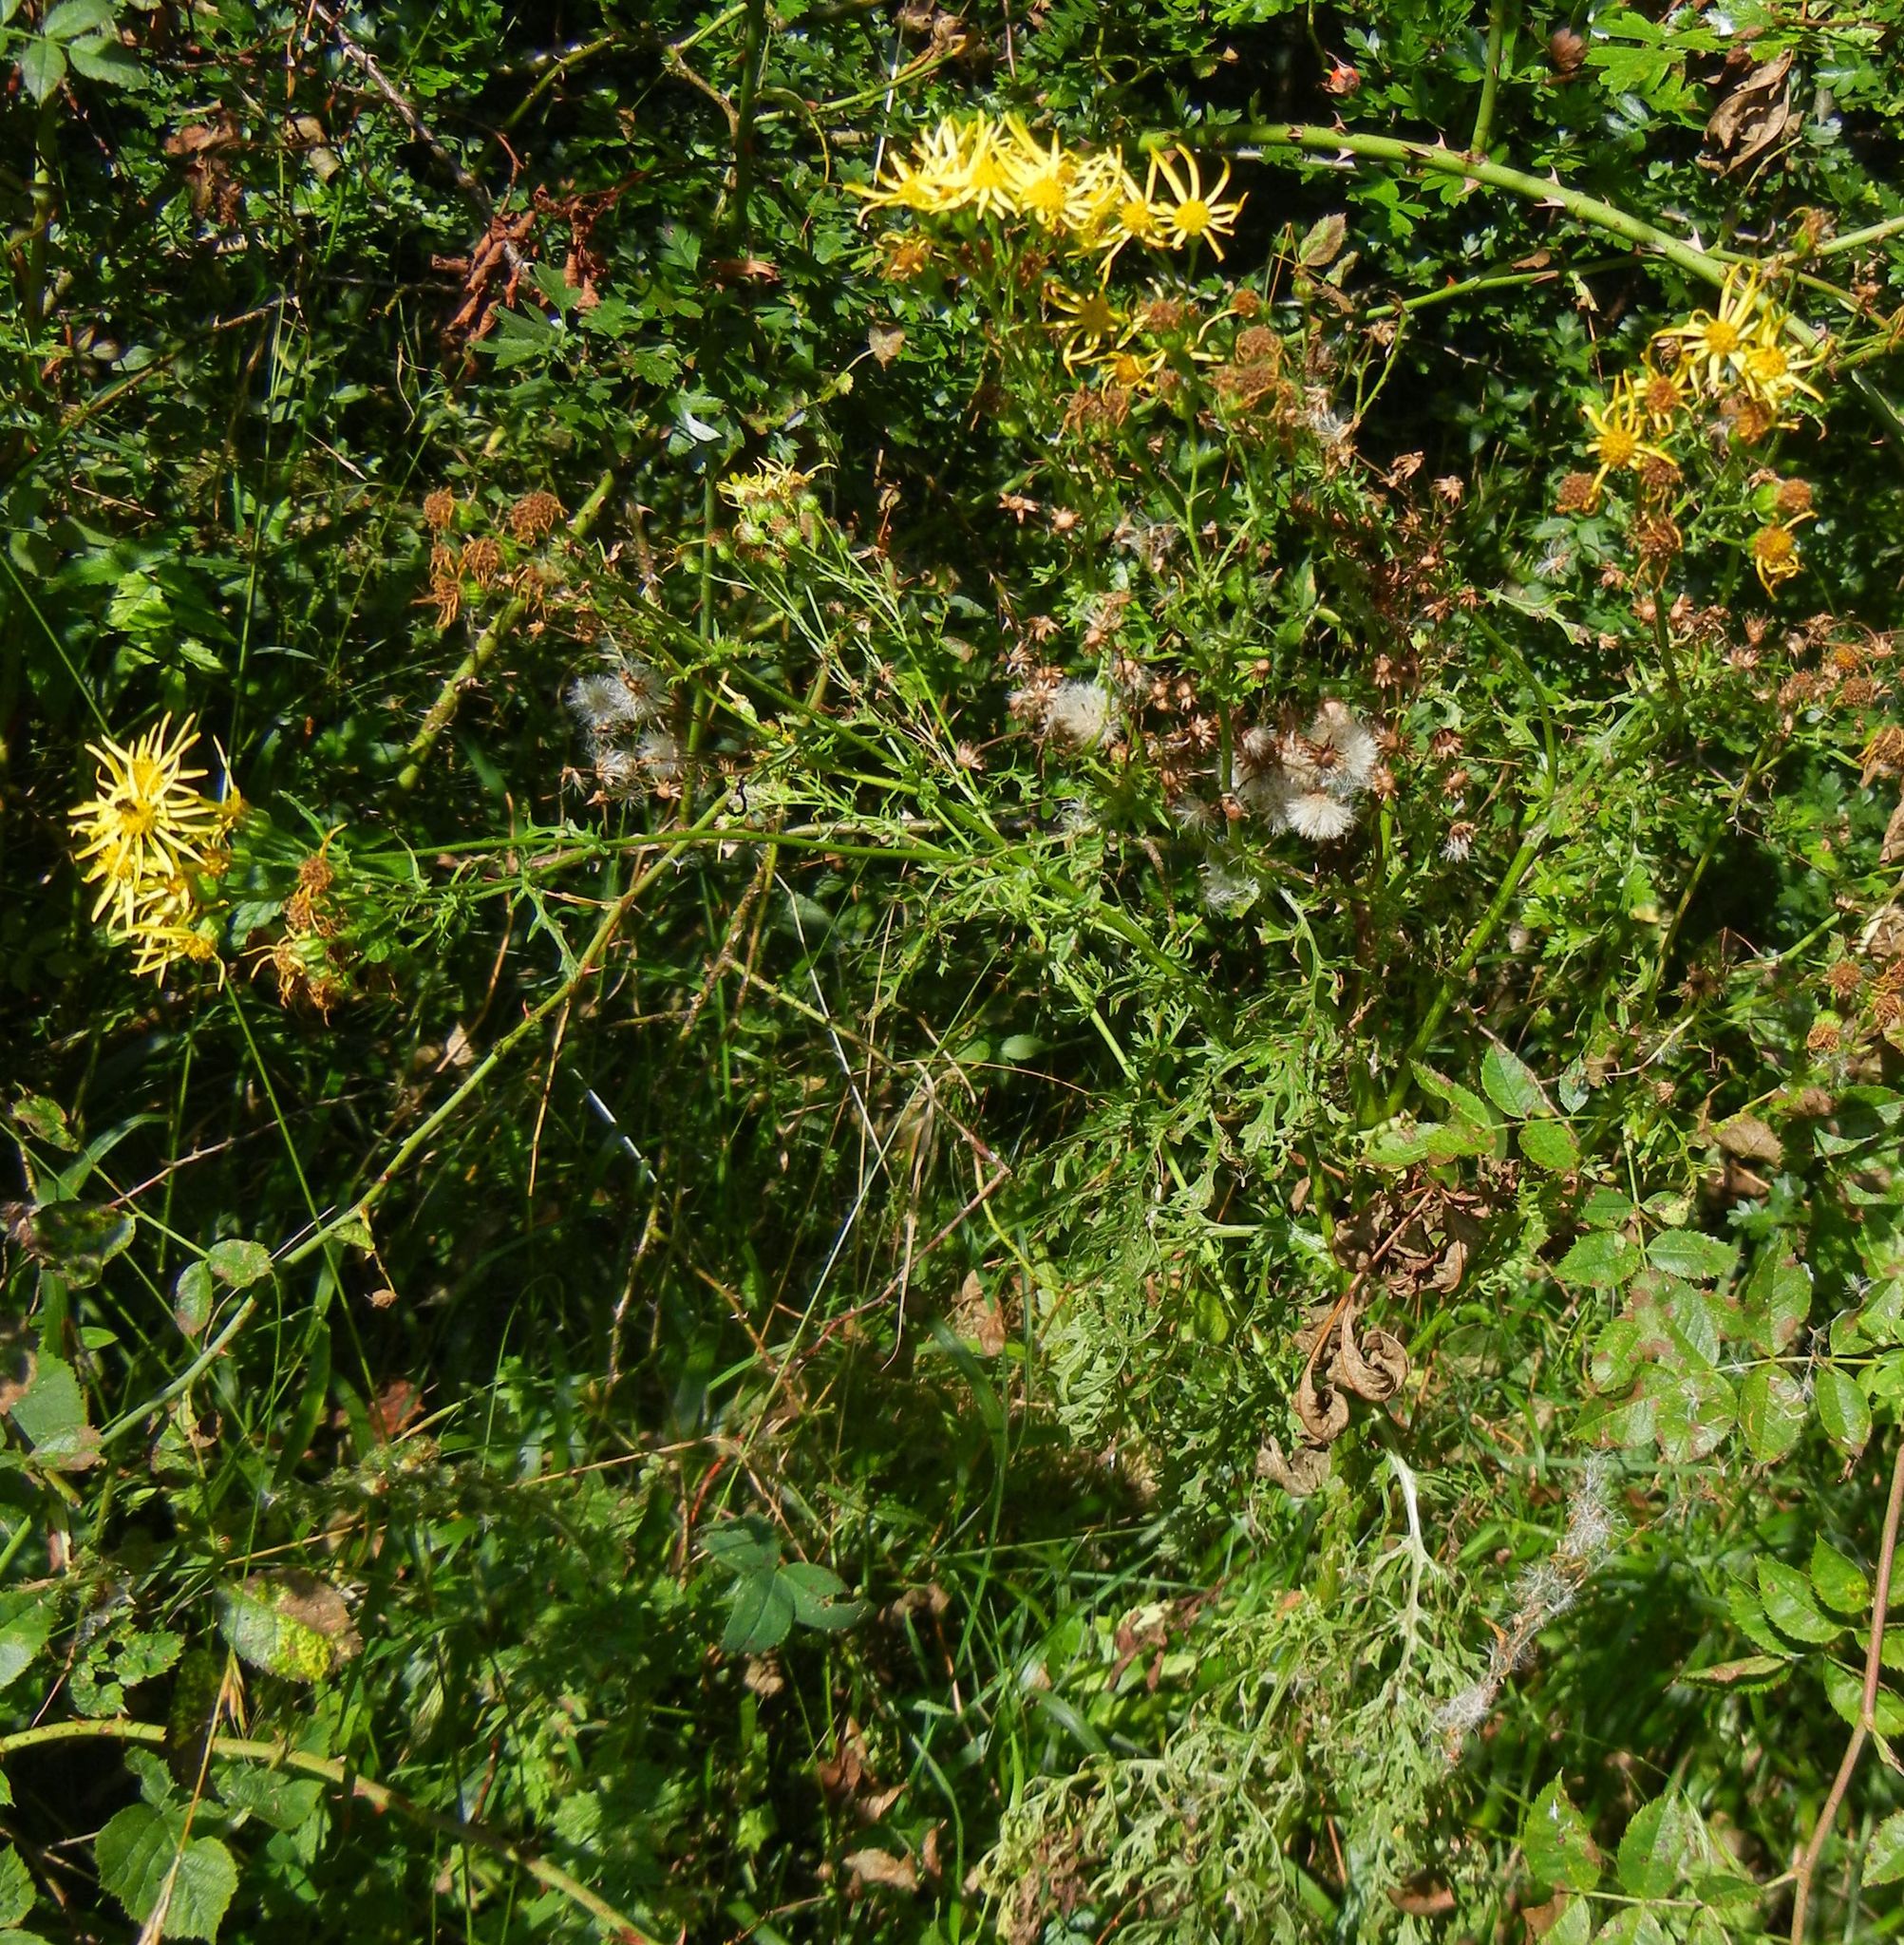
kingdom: Plantae
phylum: Tracheophyta
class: Magnoliopsida
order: Asterales
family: Asteraceae
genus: Jacobaea
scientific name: Jacobaea erucifolia
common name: Hoary ragwort
